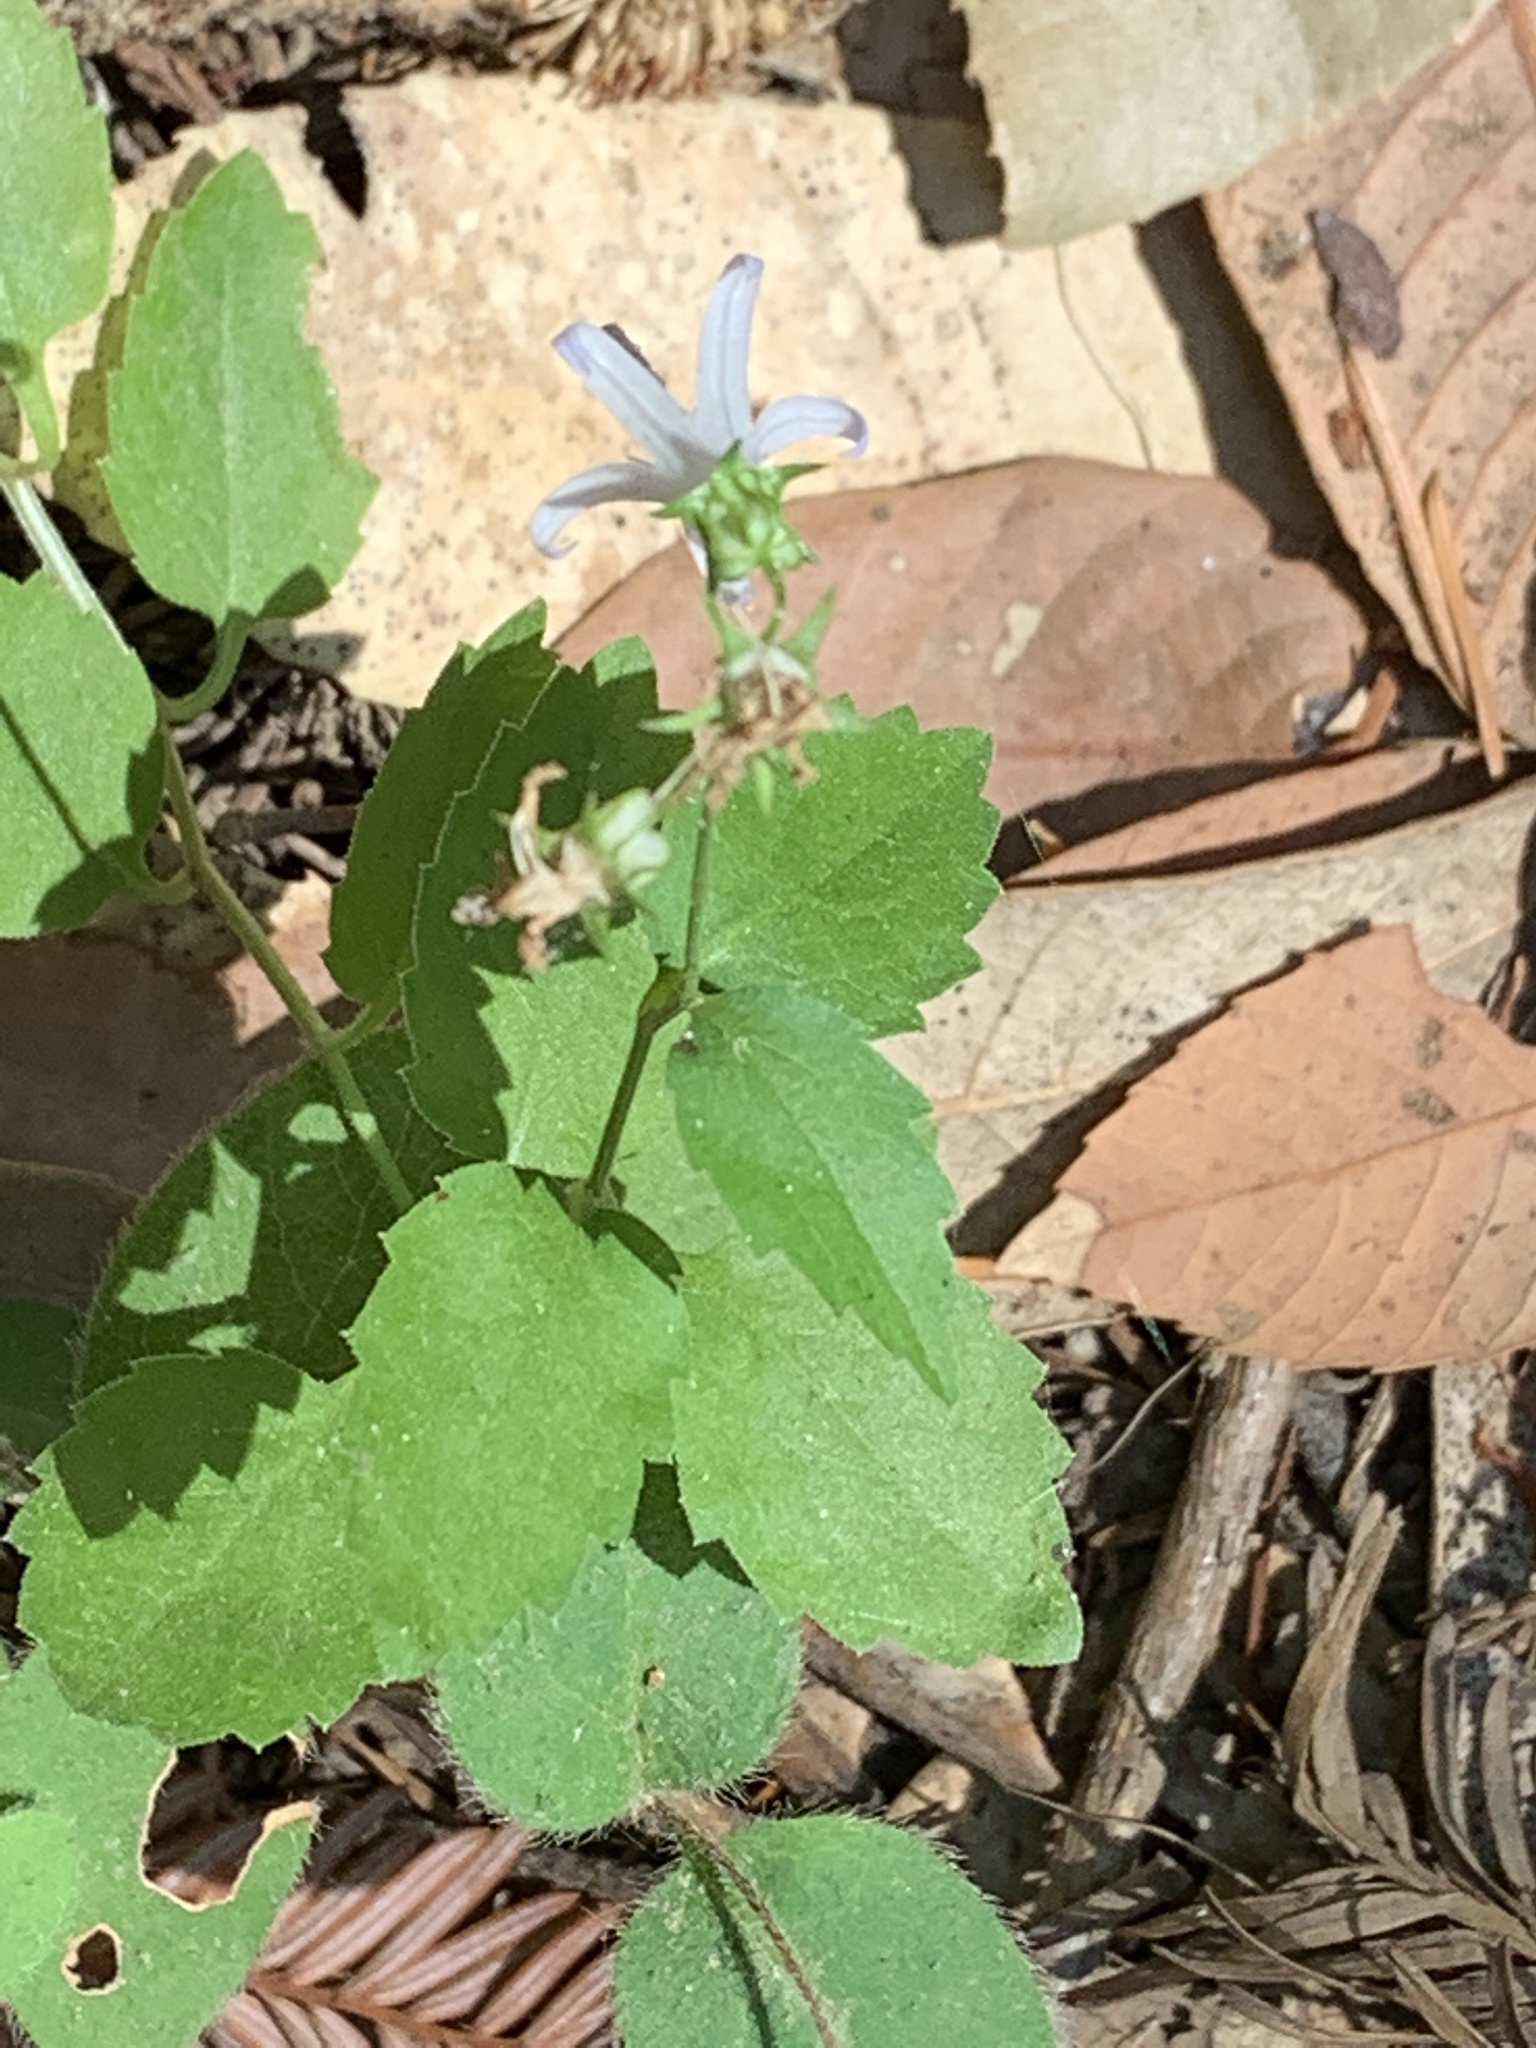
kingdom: Plantae
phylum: Tracheophyta
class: Magnoliopsida
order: Asterales
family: Campanulaceae
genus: Smithiastrum
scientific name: Smithiastrum prenanthoides
